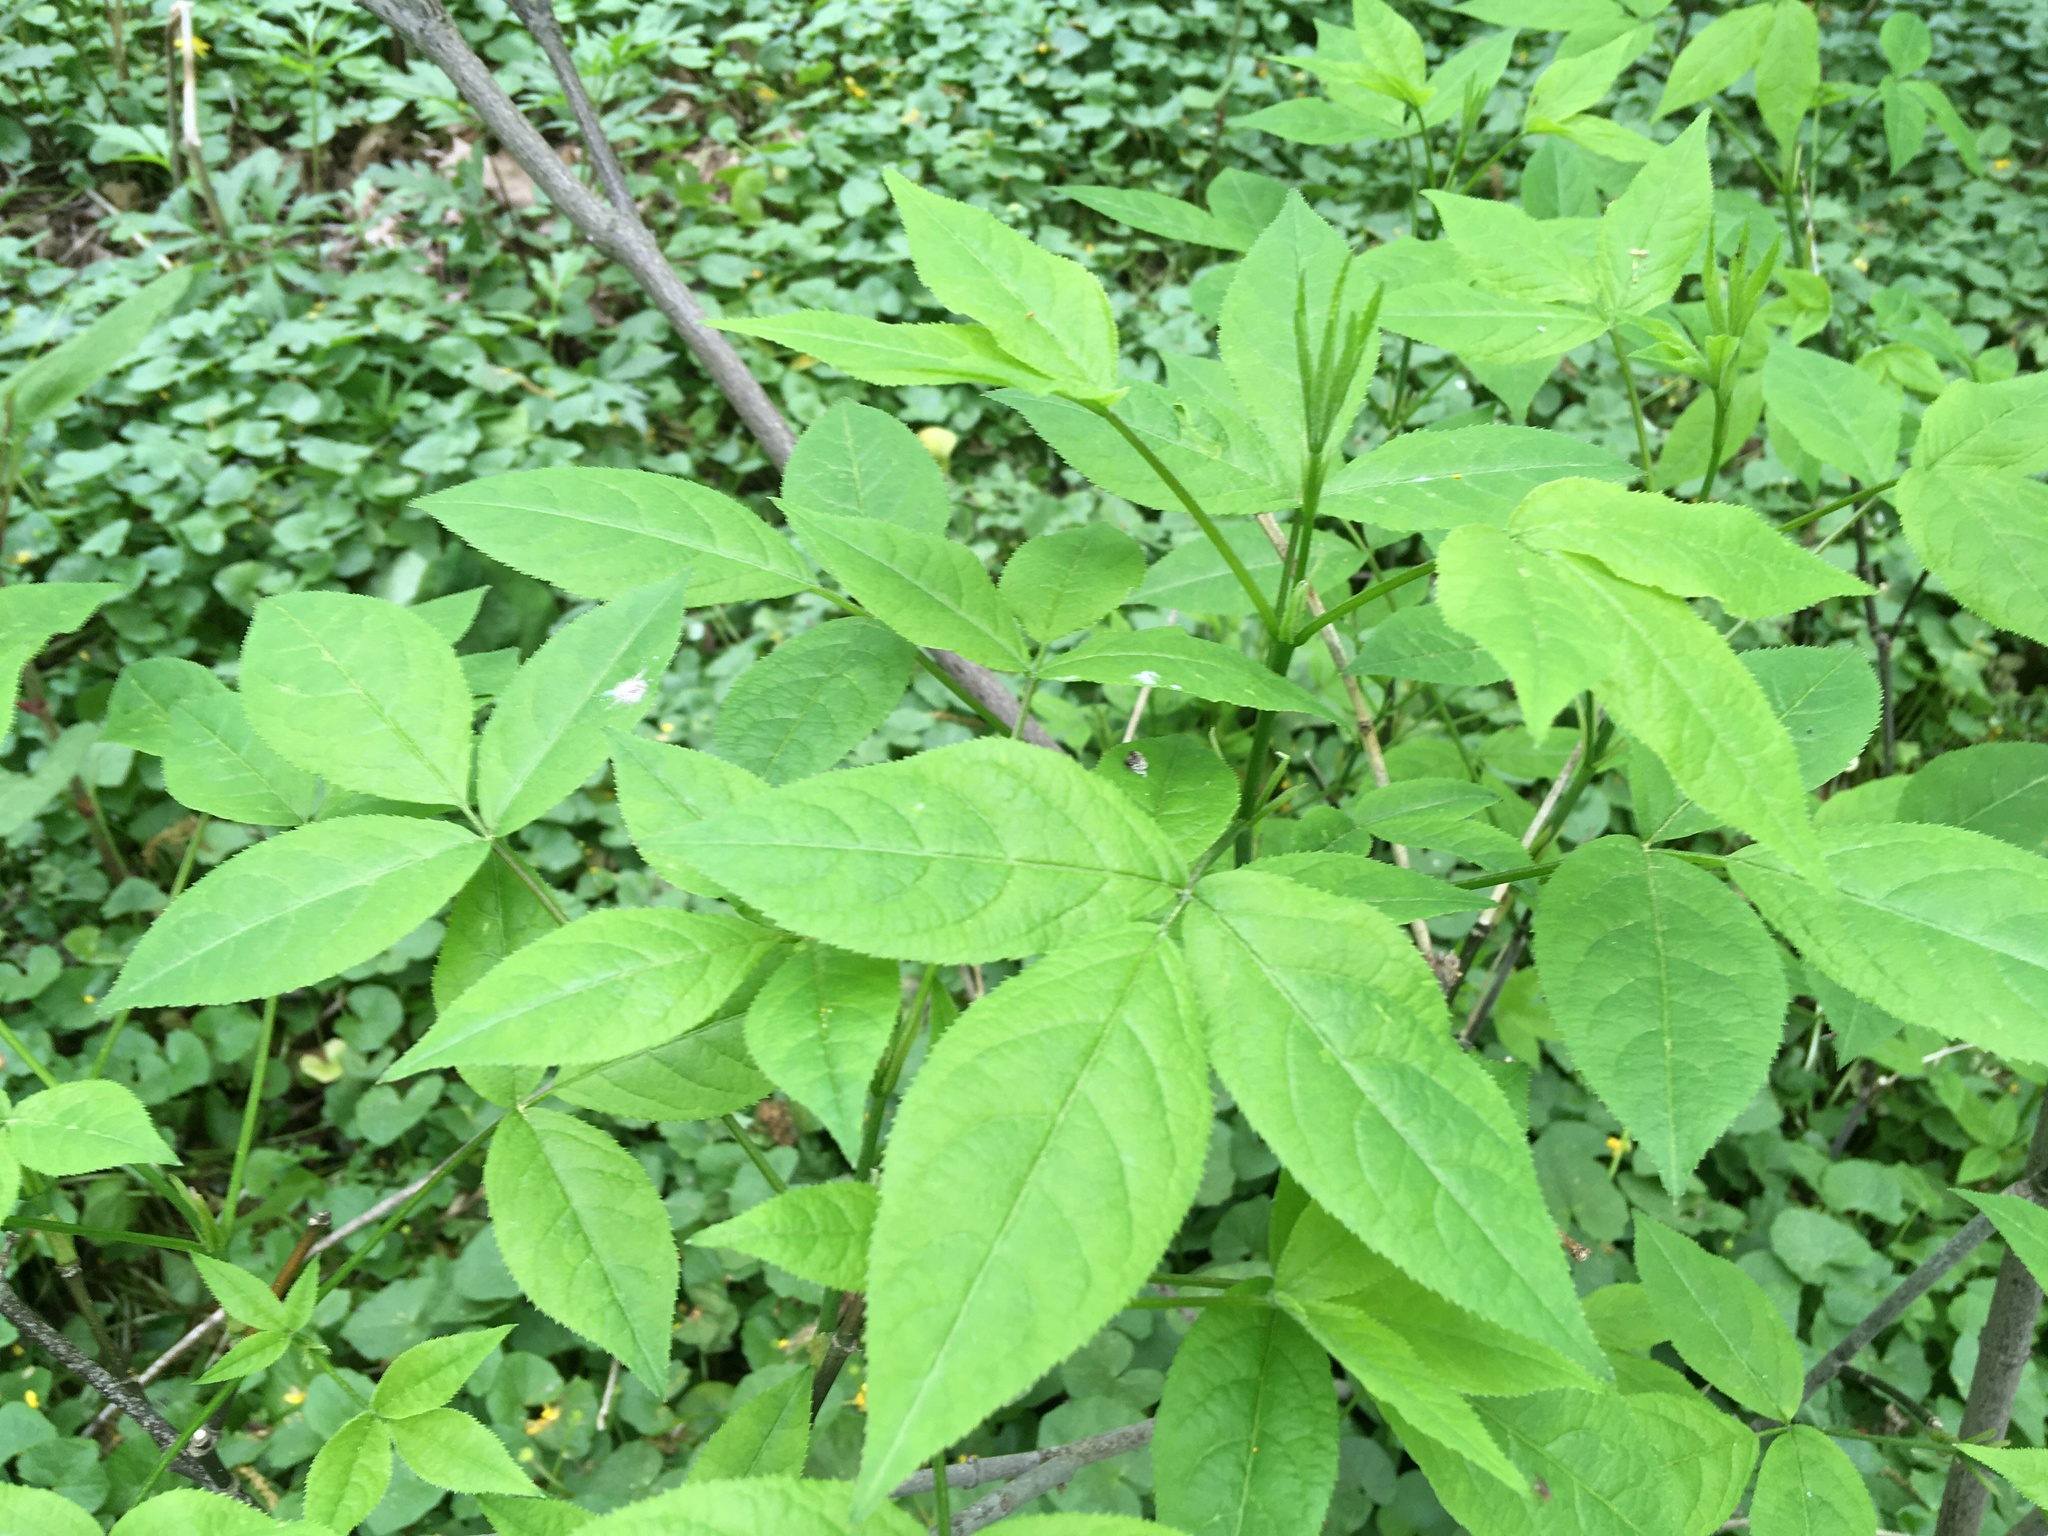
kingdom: Plantae
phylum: Tracheophyta
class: Magnoliopsida
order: Crossosomatales
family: Staphyleaceae
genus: Staphylea
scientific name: Staphylea trifolia
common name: American bladdernut
